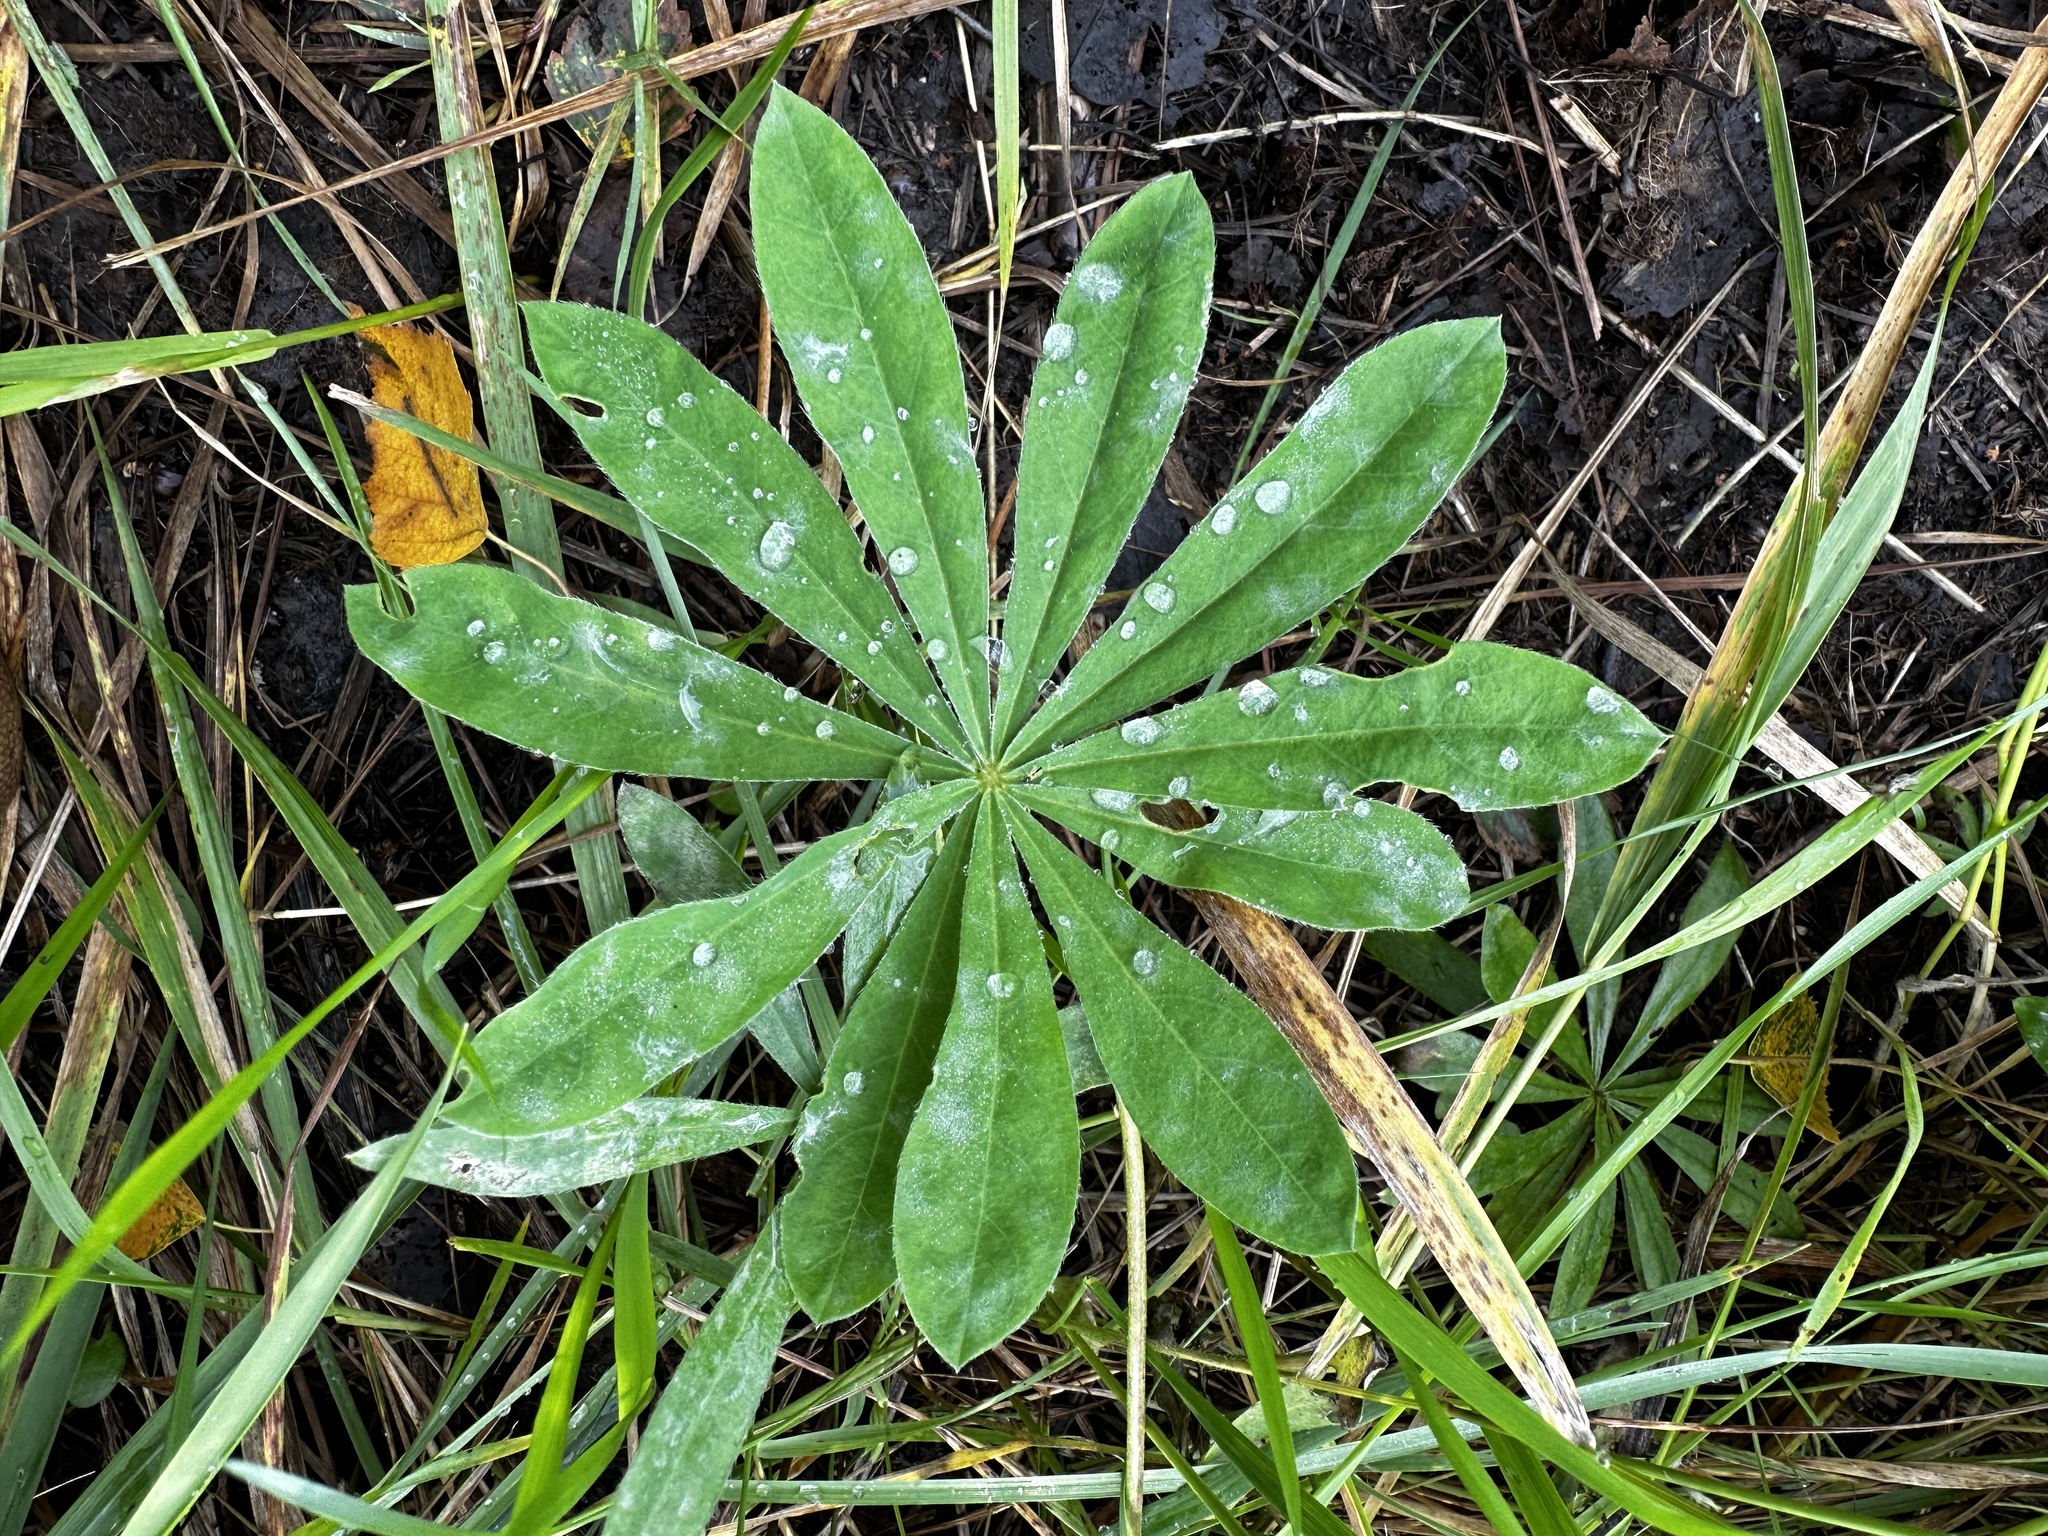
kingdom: Plantae
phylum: Tracheophyta
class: Magnoliopsida
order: Fabales
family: Fabaceae
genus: Lupinus
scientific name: Lupinus polyphyllus
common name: Garden lupin
